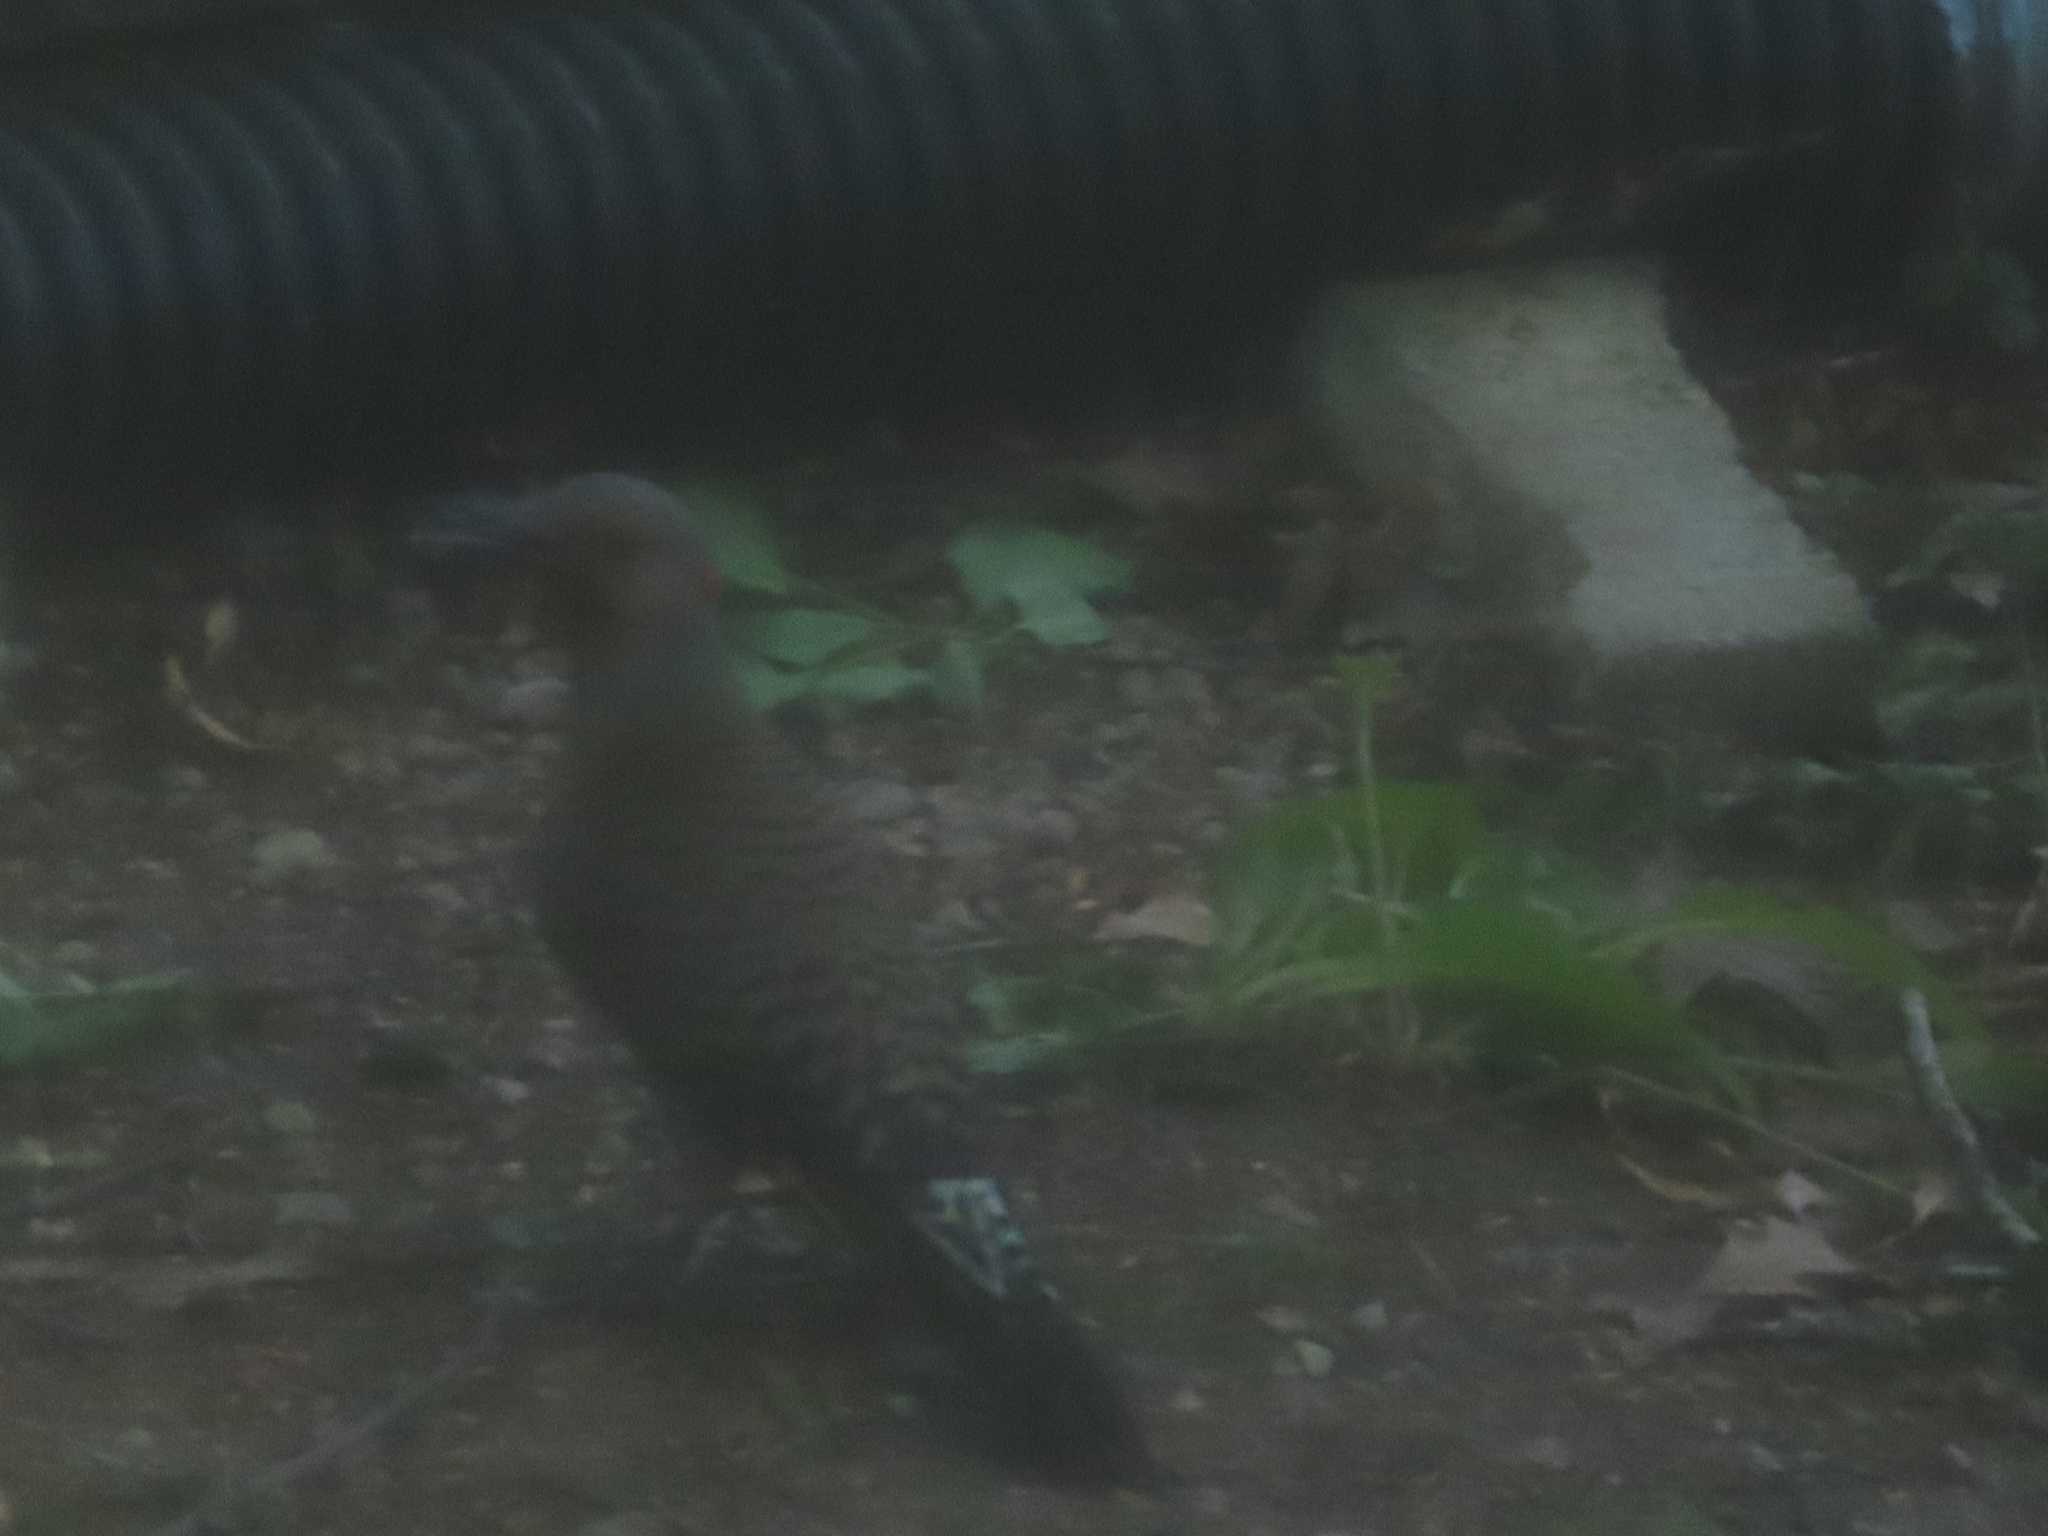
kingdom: Animalia
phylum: Chordata
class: Aves
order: Piciformes
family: Picidae
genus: Colaptes
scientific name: Colaptes auratus
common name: Northern flicker
